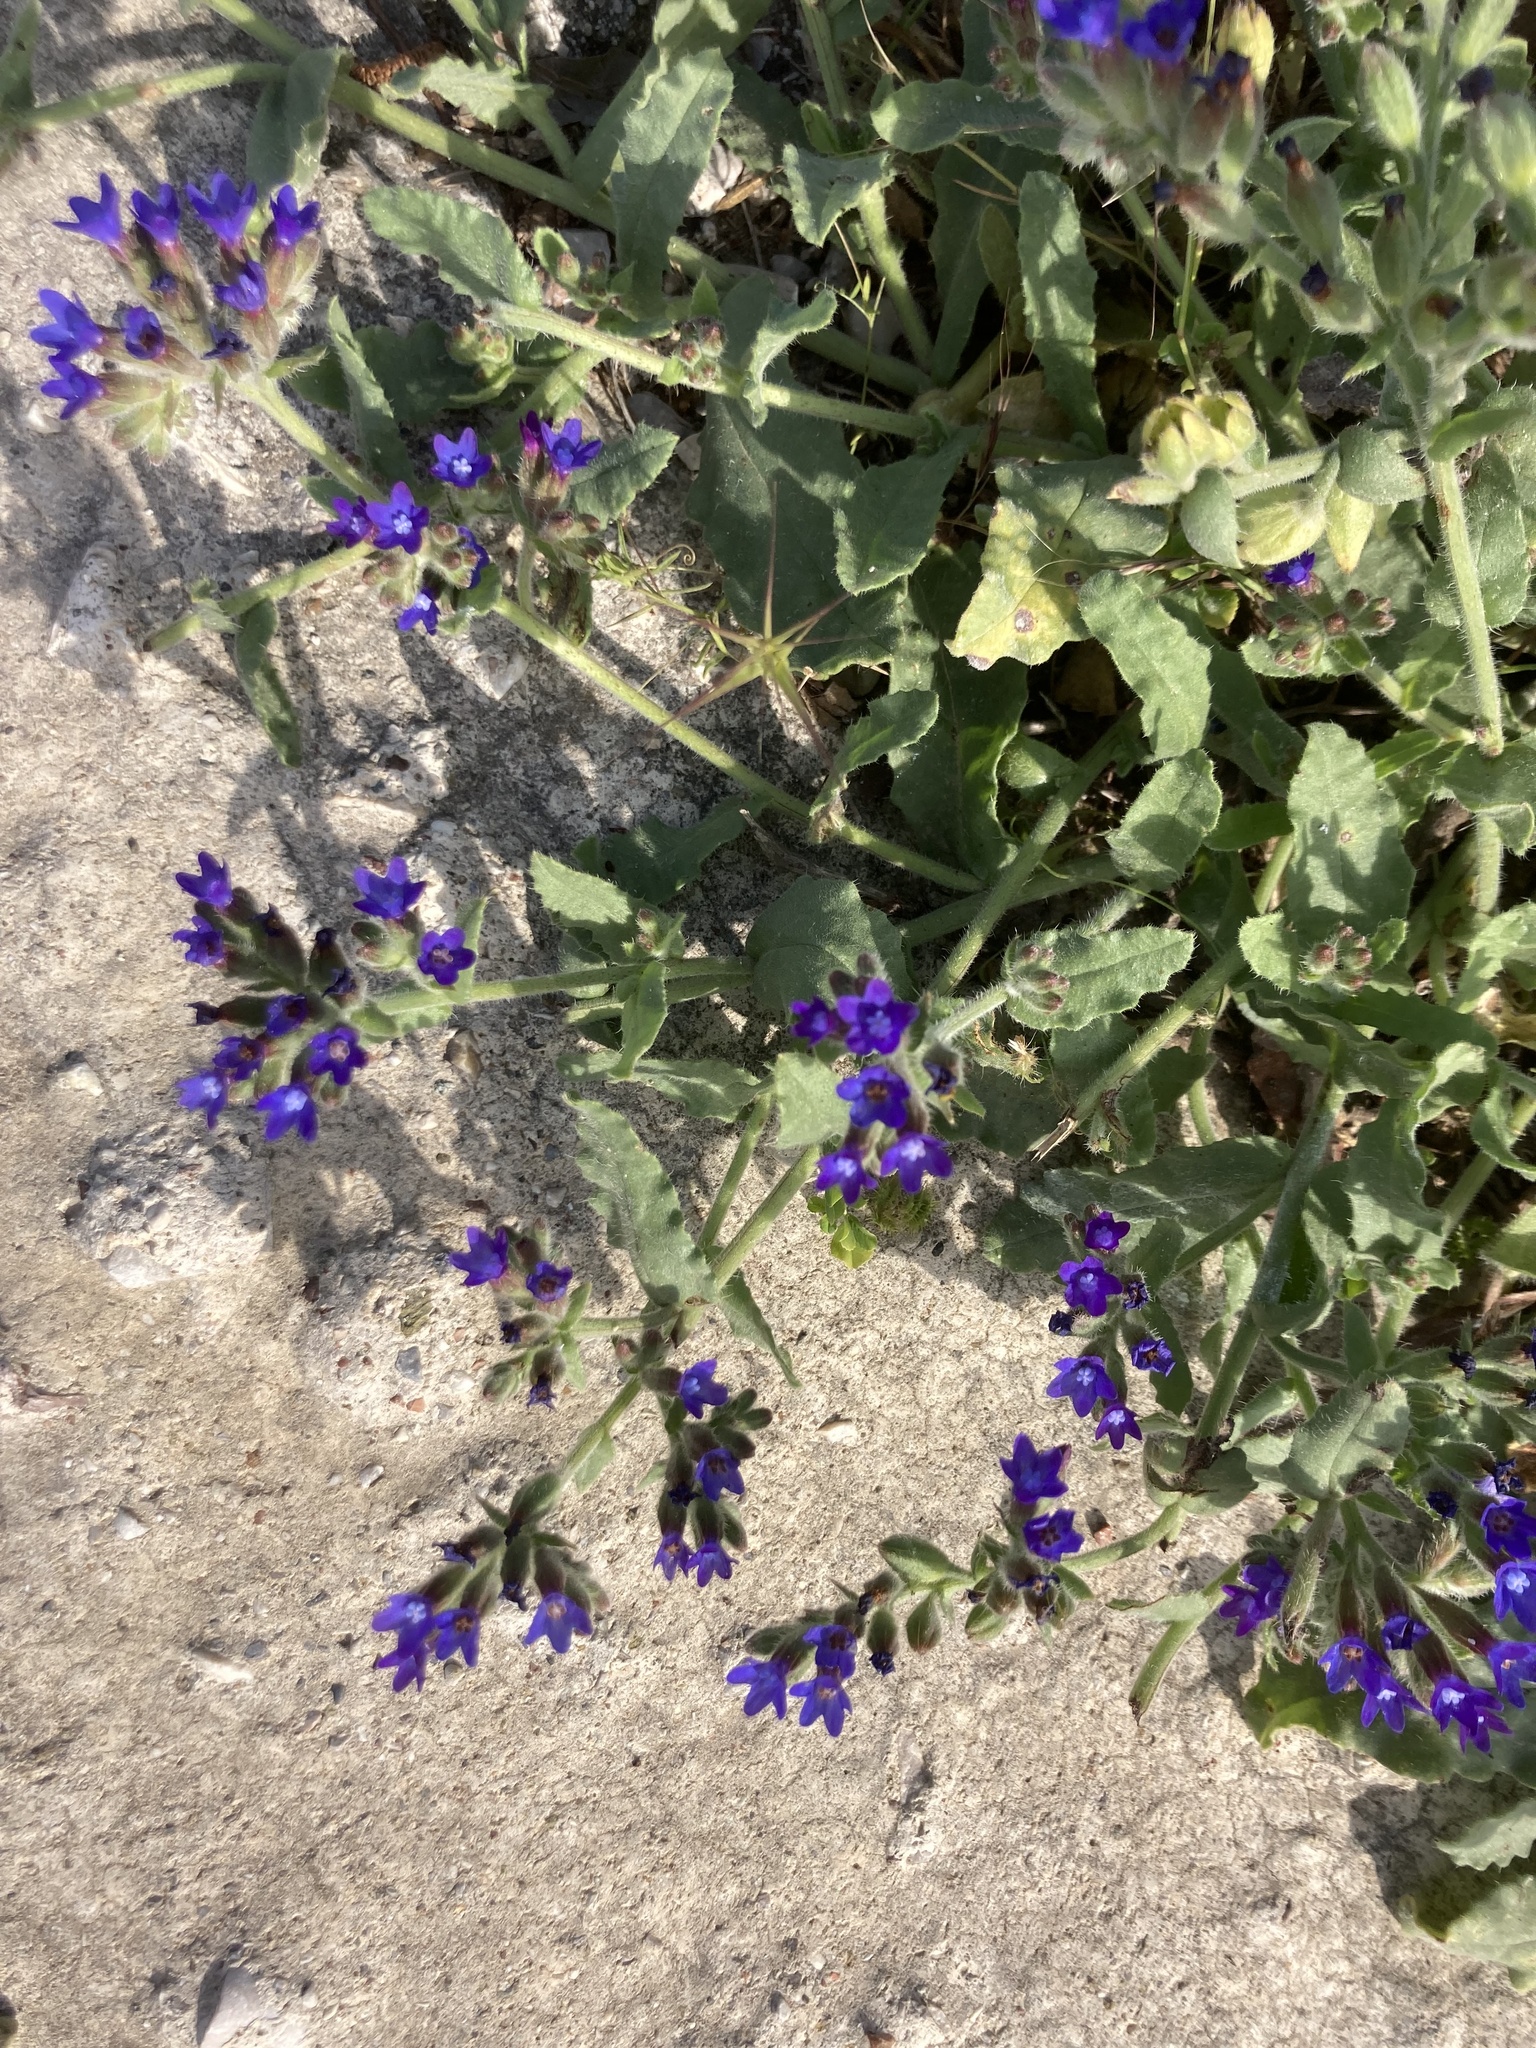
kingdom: Plantae
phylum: Tracheophyta
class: Magnoliopsida
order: Boraginales
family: Boraginaceae
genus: Anchusa
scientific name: Anchusa hybrida
